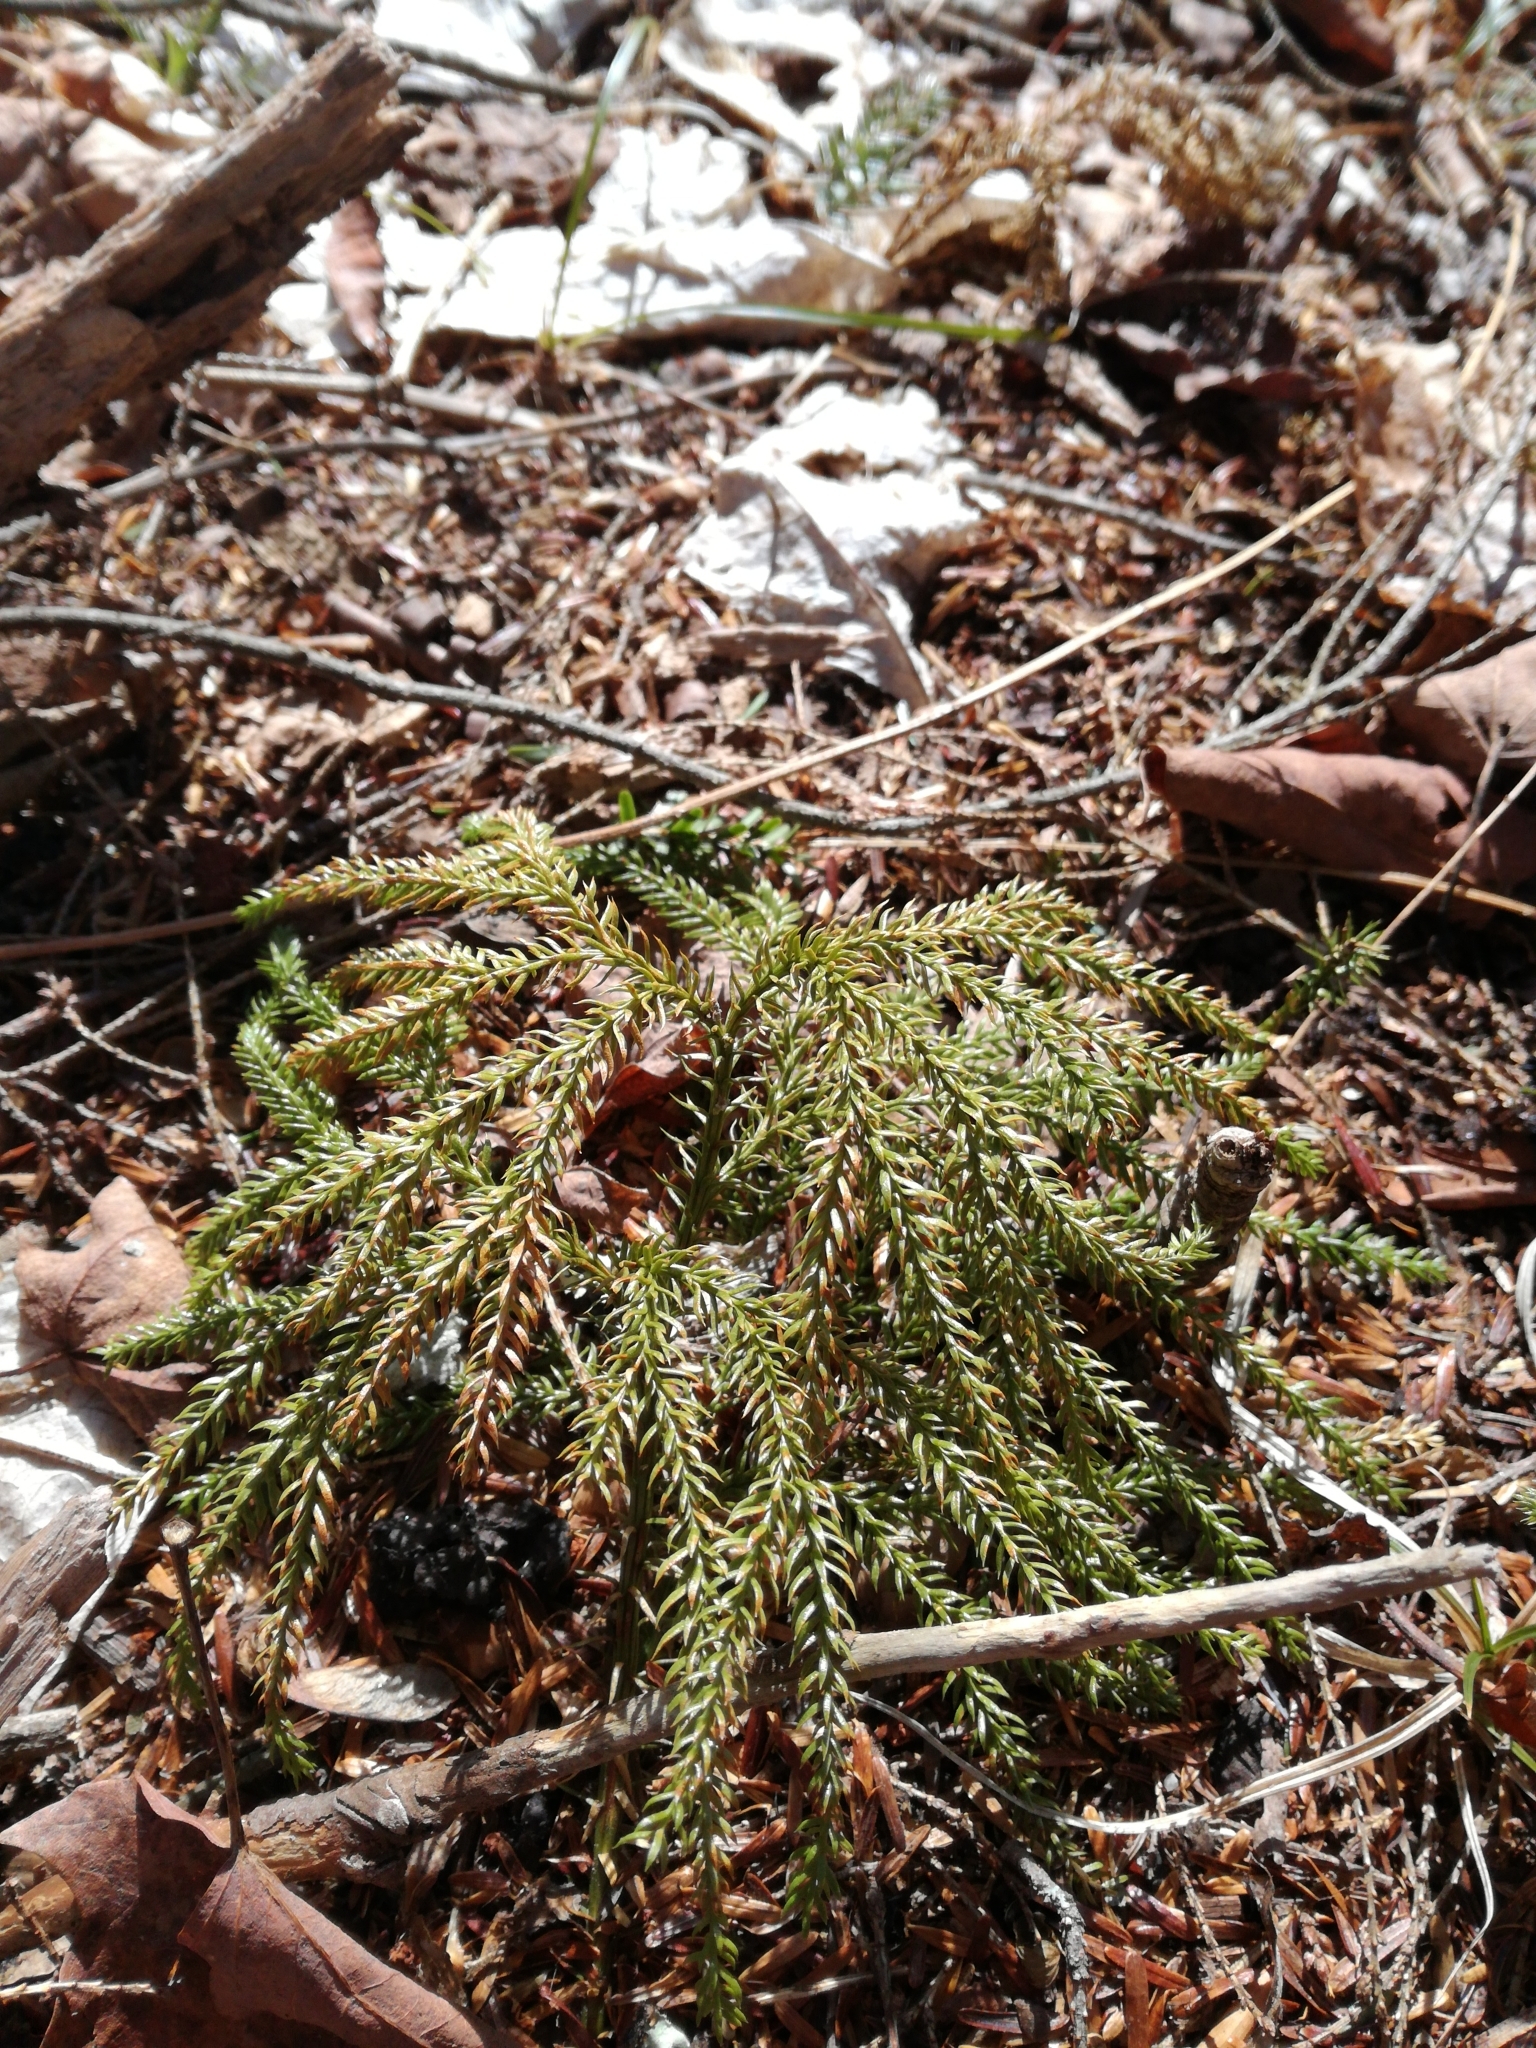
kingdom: Plantae
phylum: Tracheophyta
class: Lycopodiopsida
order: Lycopodiales
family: Lycopodiaceae
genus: Dendrolycopodium
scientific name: Dendrolycopodium dendroideum
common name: Northern tree-clubmoss
